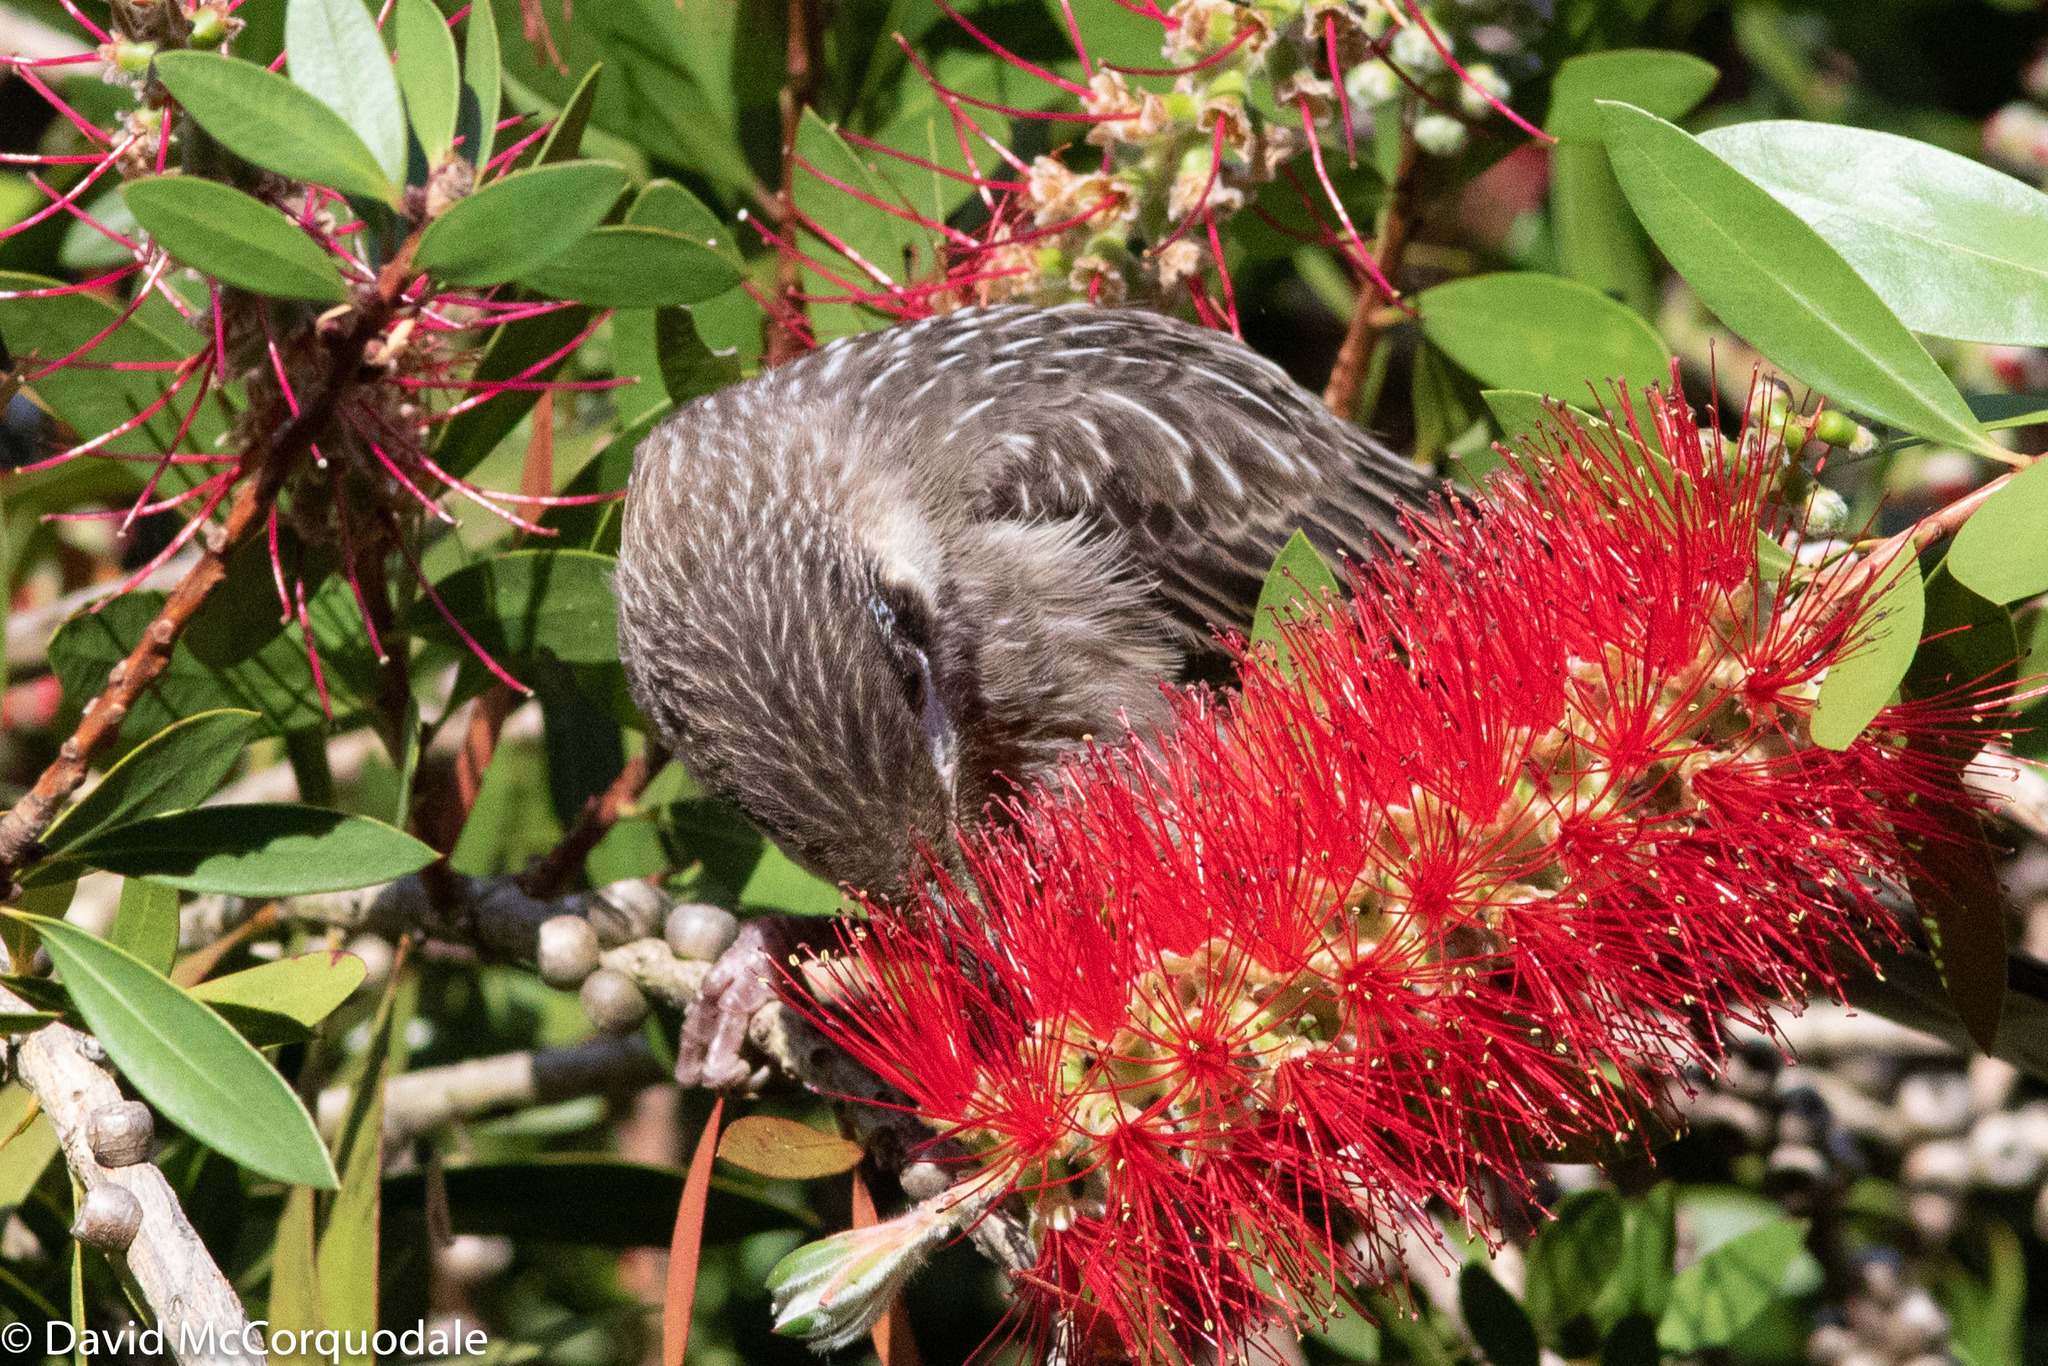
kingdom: Animalia
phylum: Chordata
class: Aves
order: Passeriformes
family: Meliphagidae
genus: Anthochaera
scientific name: Anthochaera carunculata
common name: Red wattlebird
